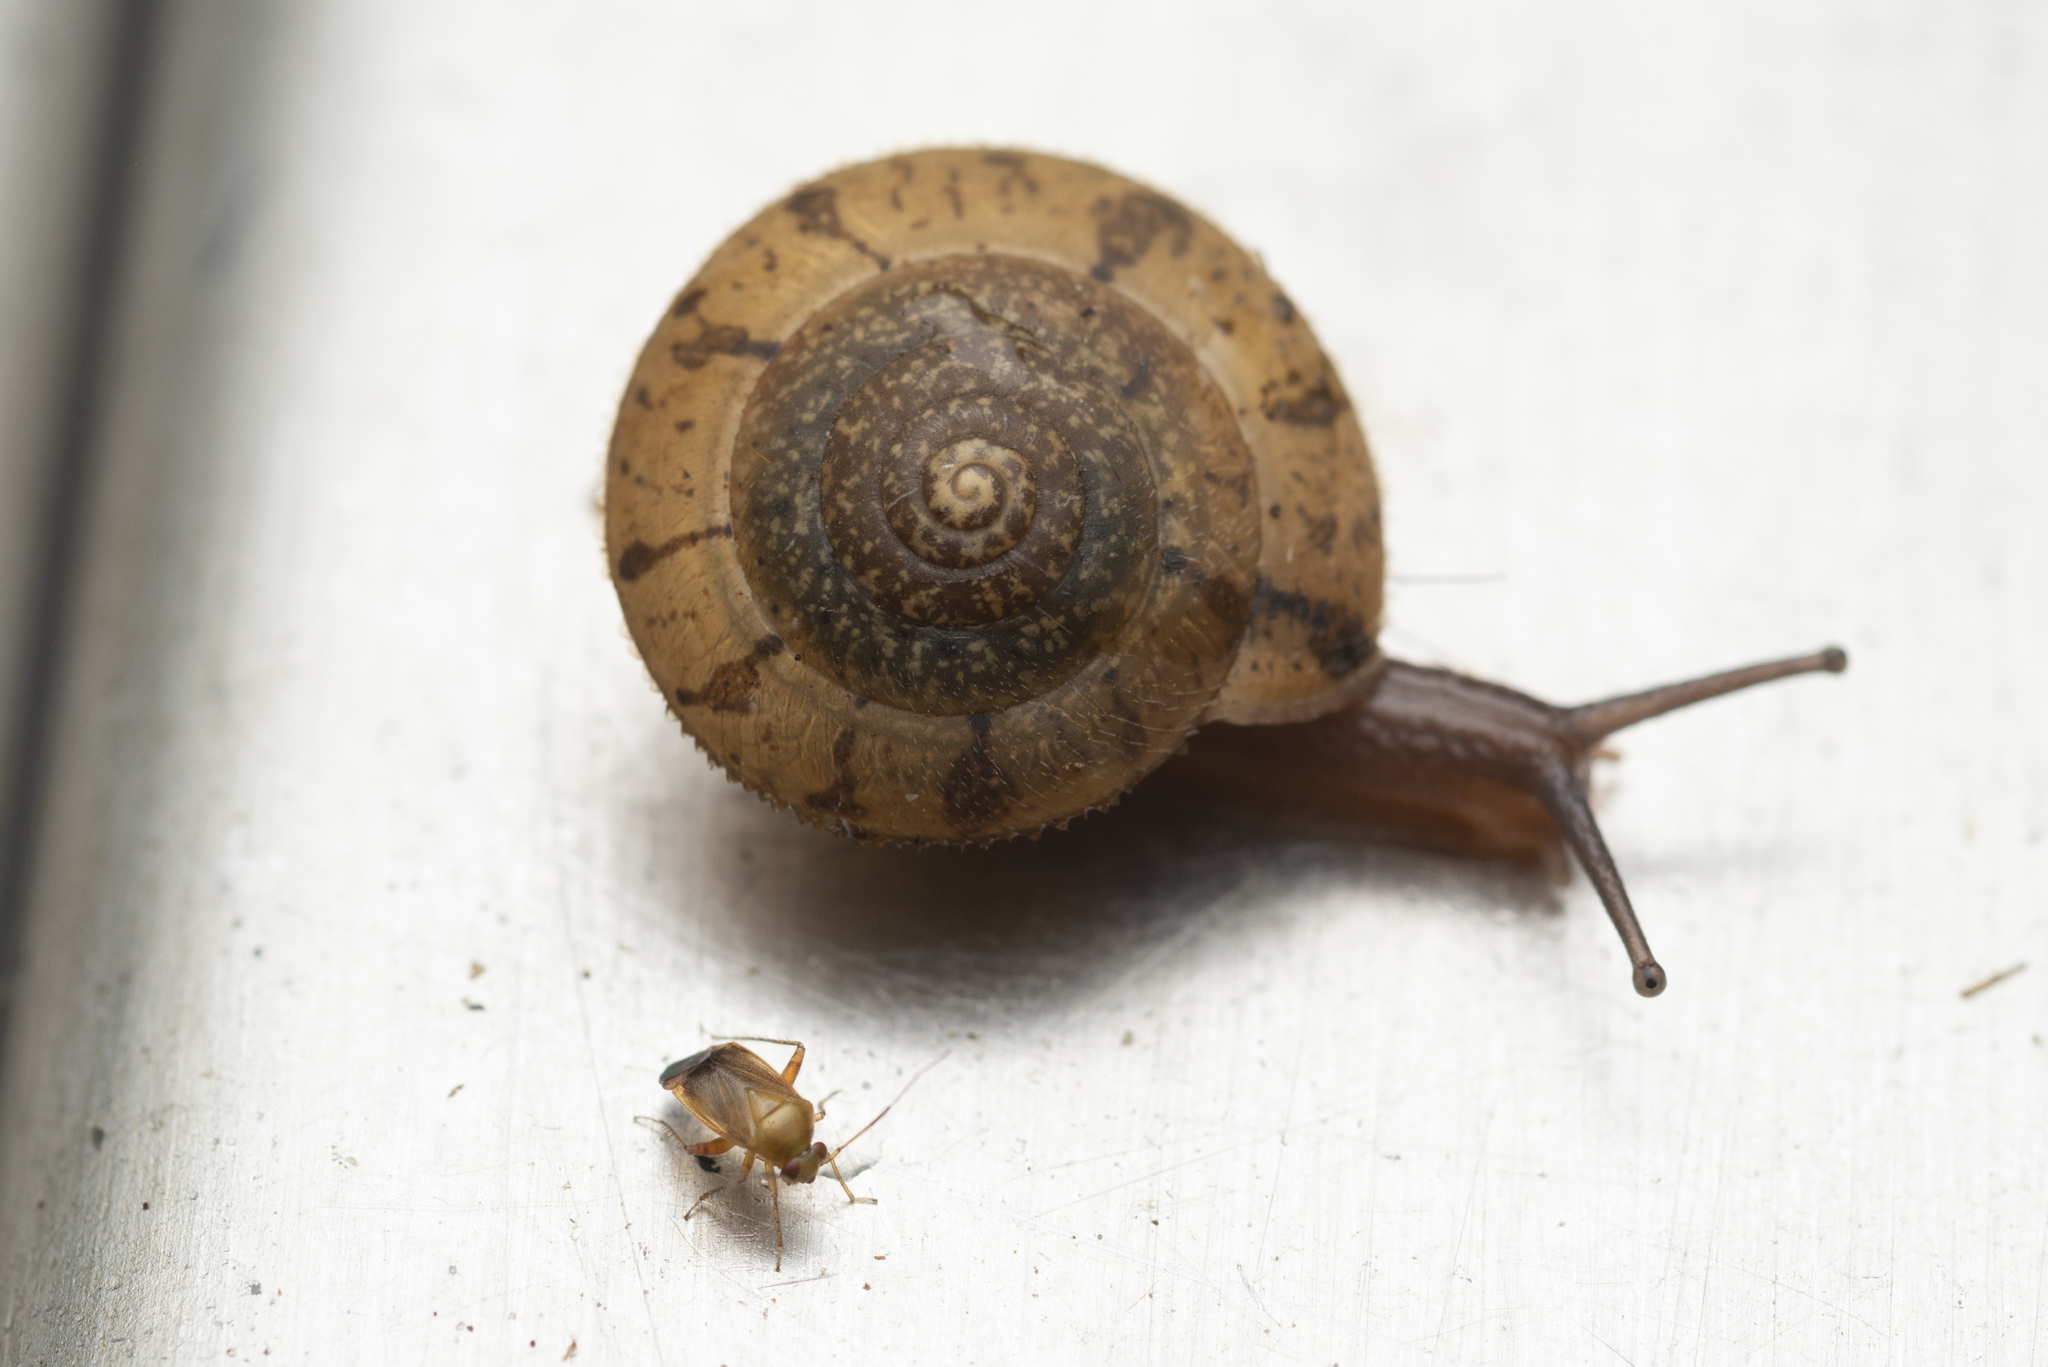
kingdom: Animalia
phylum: Mollusca
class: Gastropoda
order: Stylommatophora
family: Camaenidae
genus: Plectotropis
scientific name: Plectotropis gerlachi
